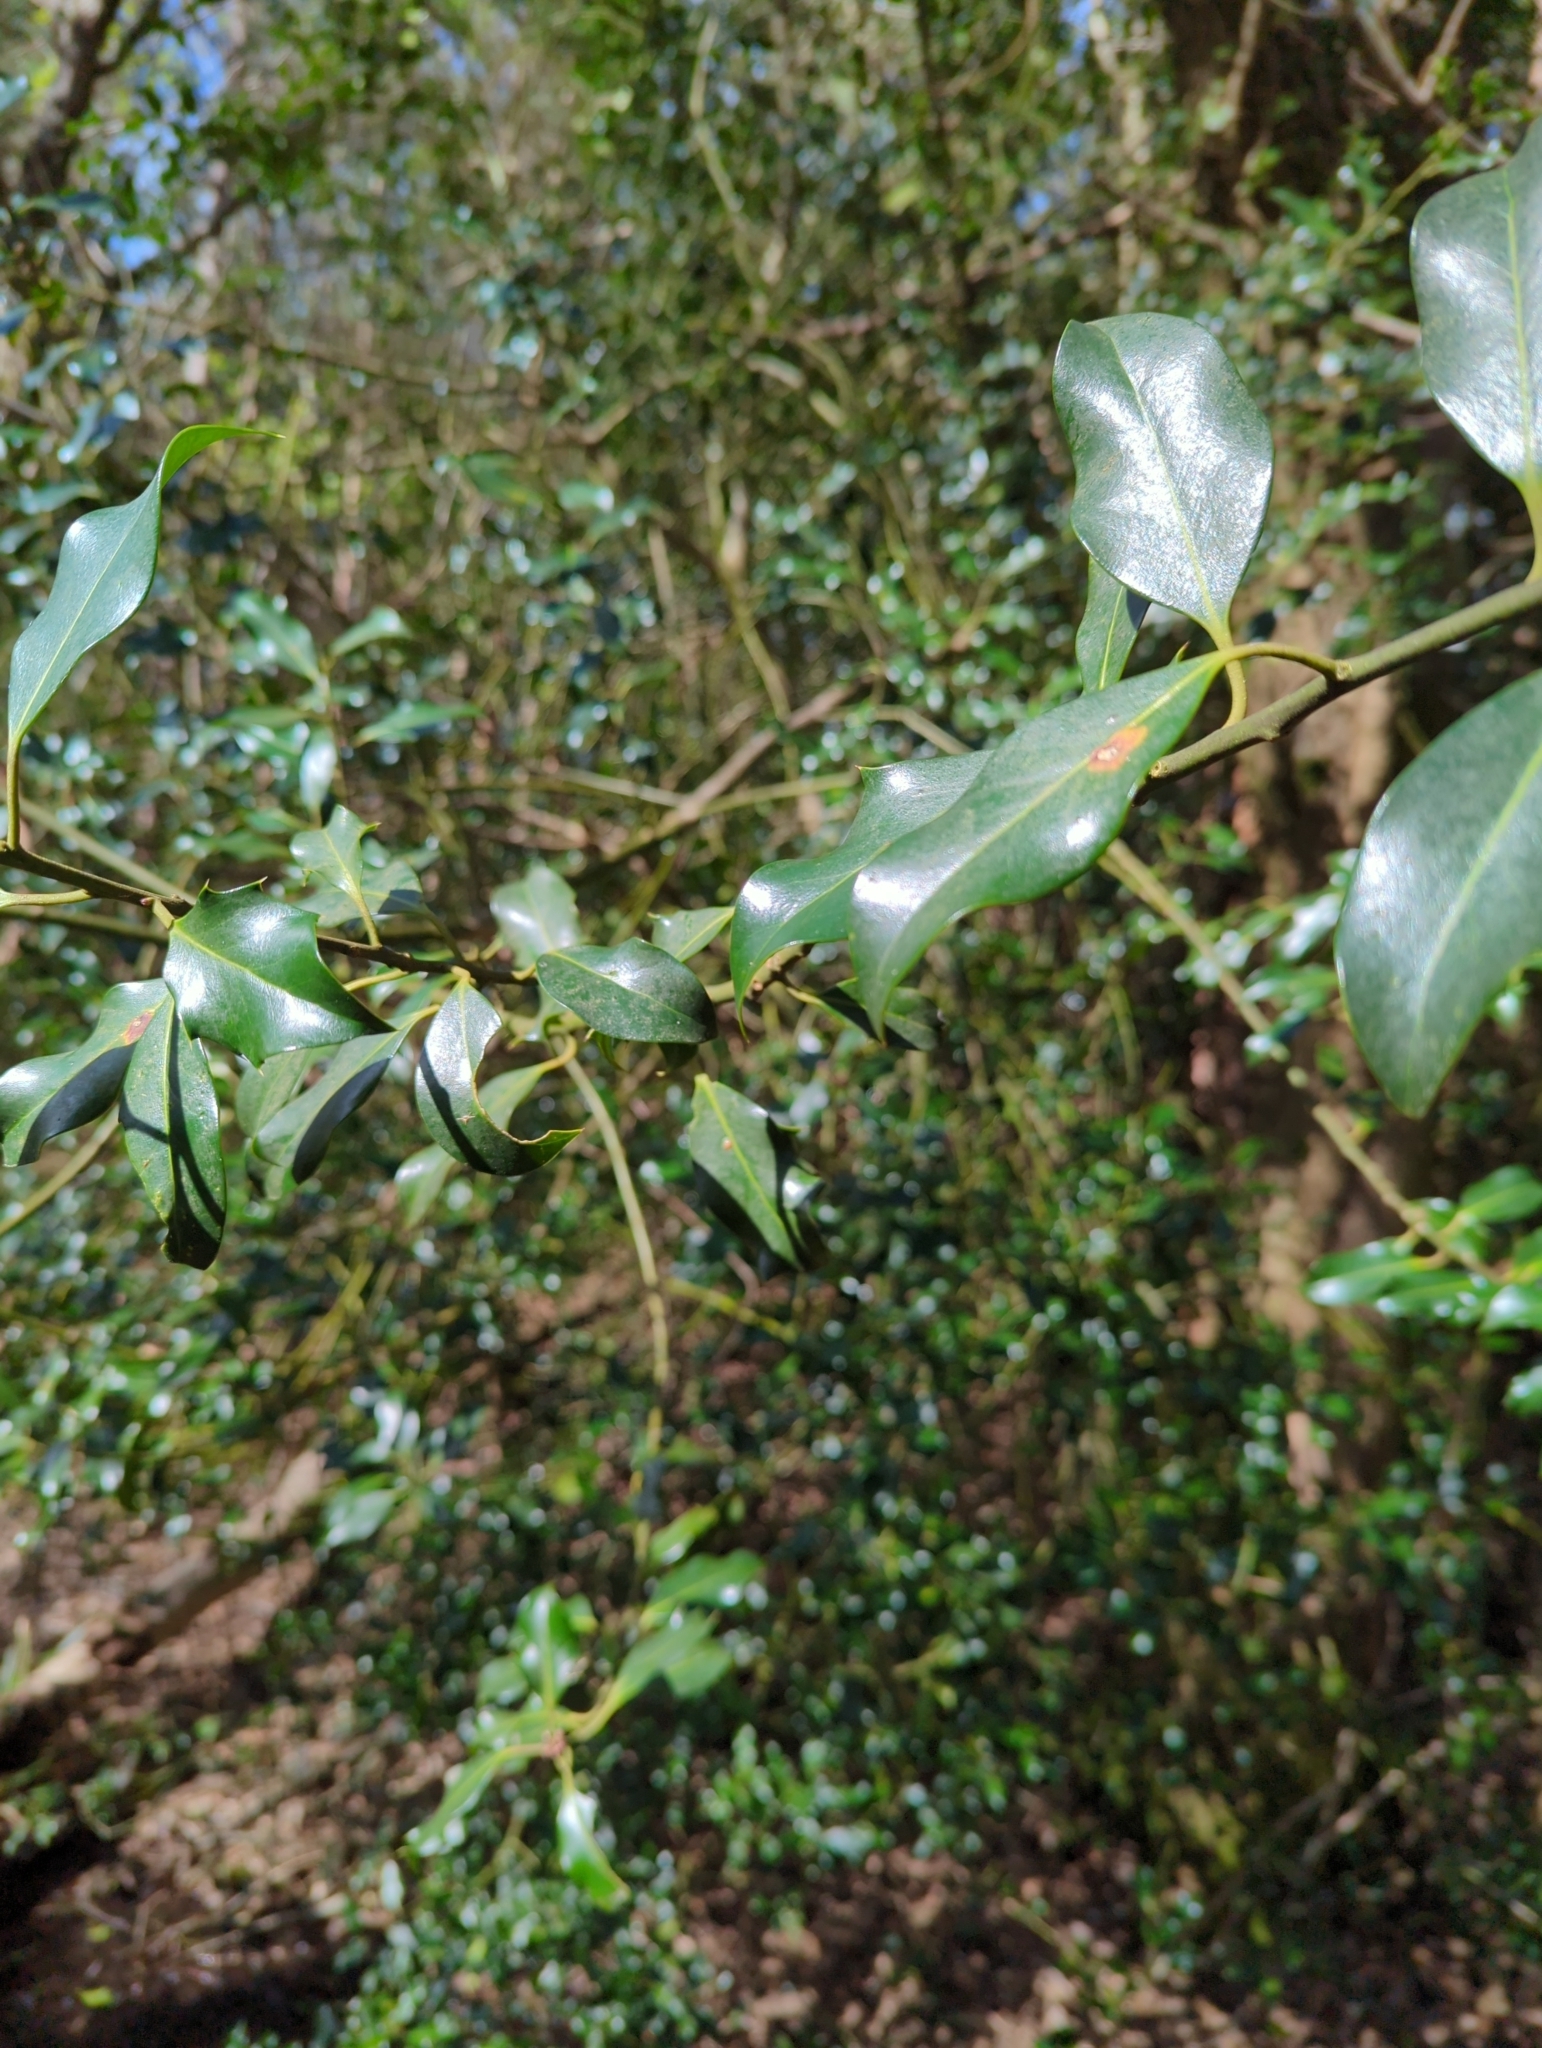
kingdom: Plantae
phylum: Tracheophyta
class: Magnoliopsida
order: Aquifoliales
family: Aquifoliaceae
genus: Ilex
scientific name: Ilex aquifolium
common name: English holly
